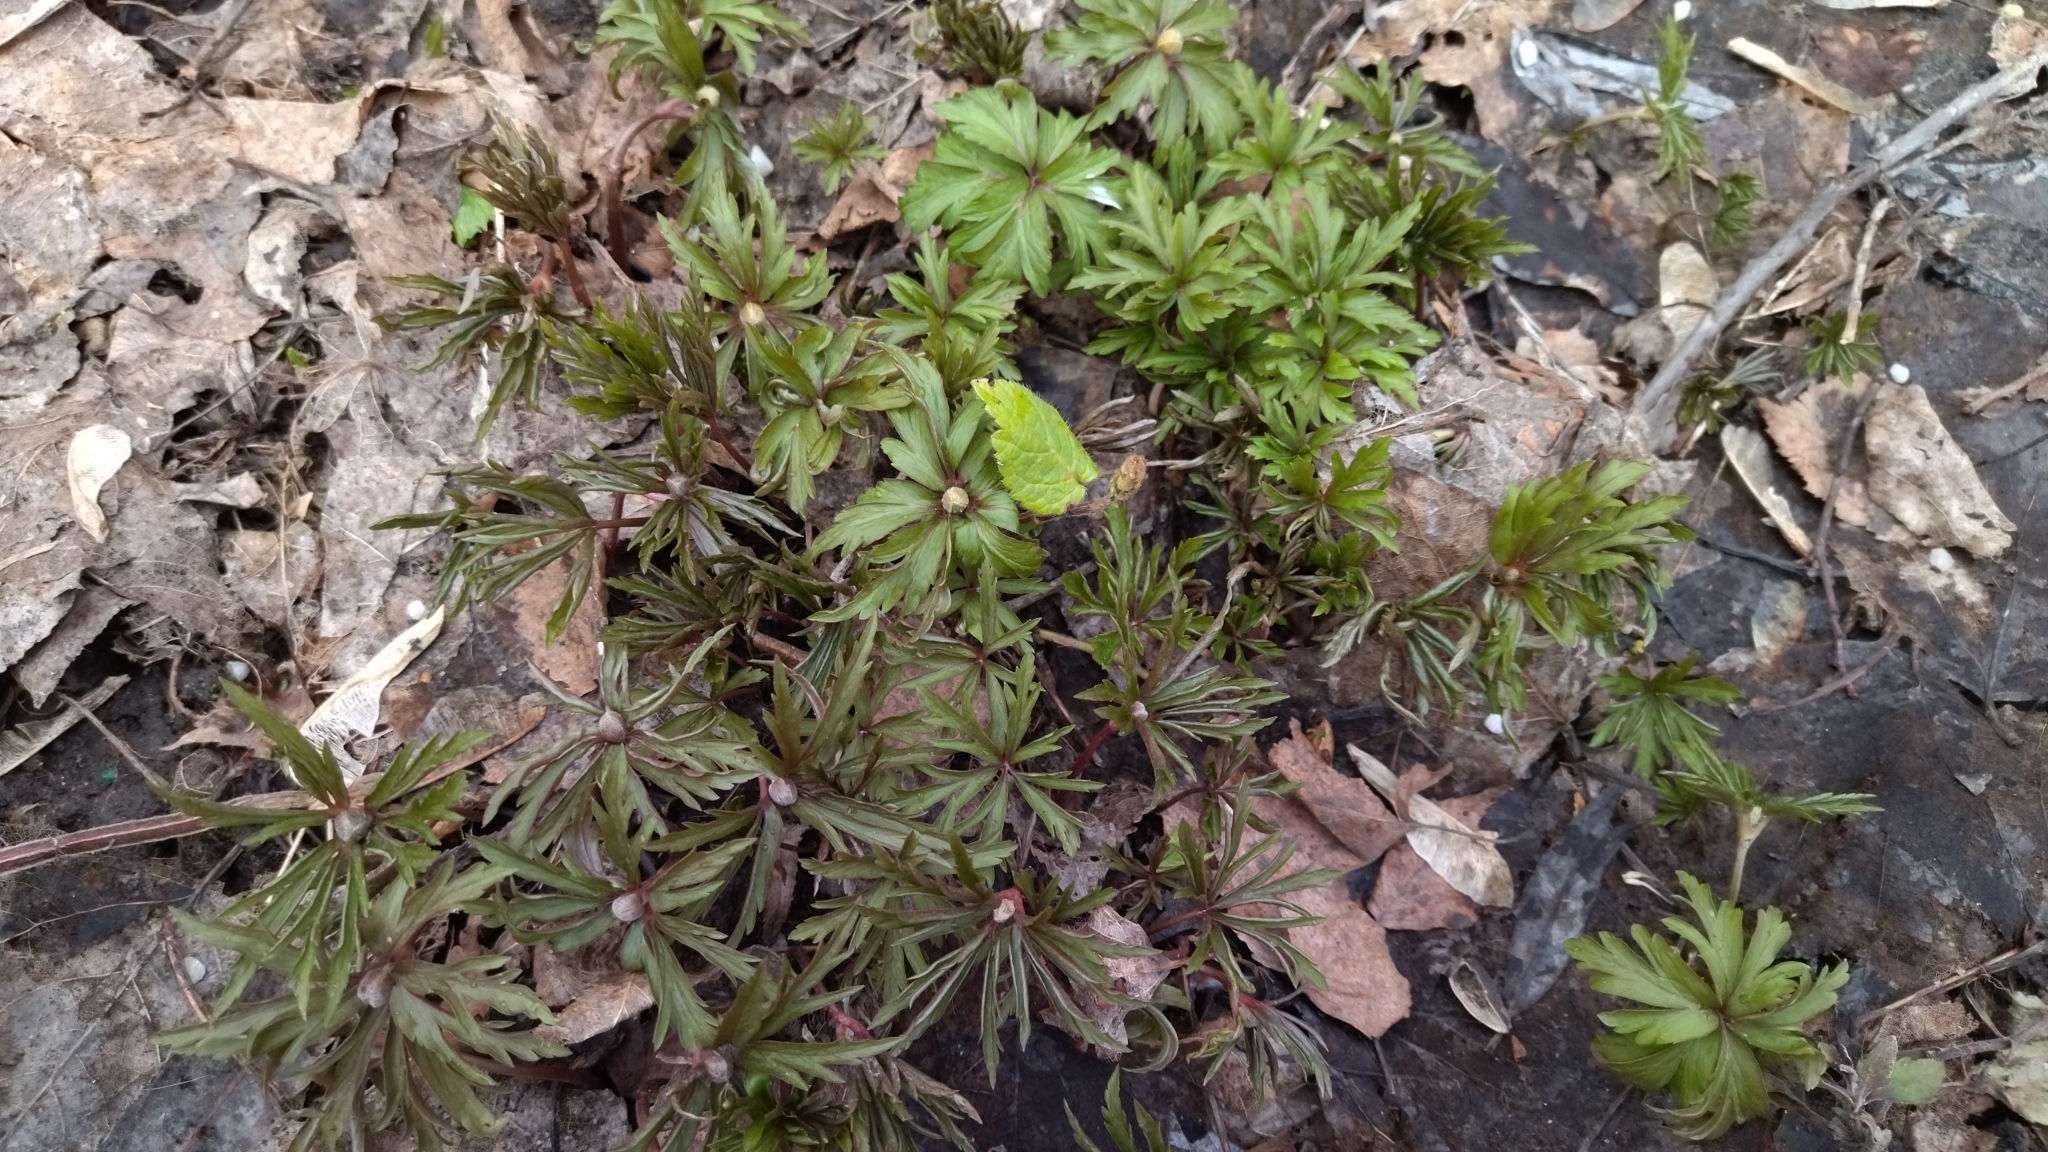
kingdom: Plantae
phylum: Tracheophyta
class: Magnoliopsida
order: Ranunculales
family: Ranunculaceae
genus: Anemone
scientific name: Anemone ranunculoides
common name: Yellow anemone
